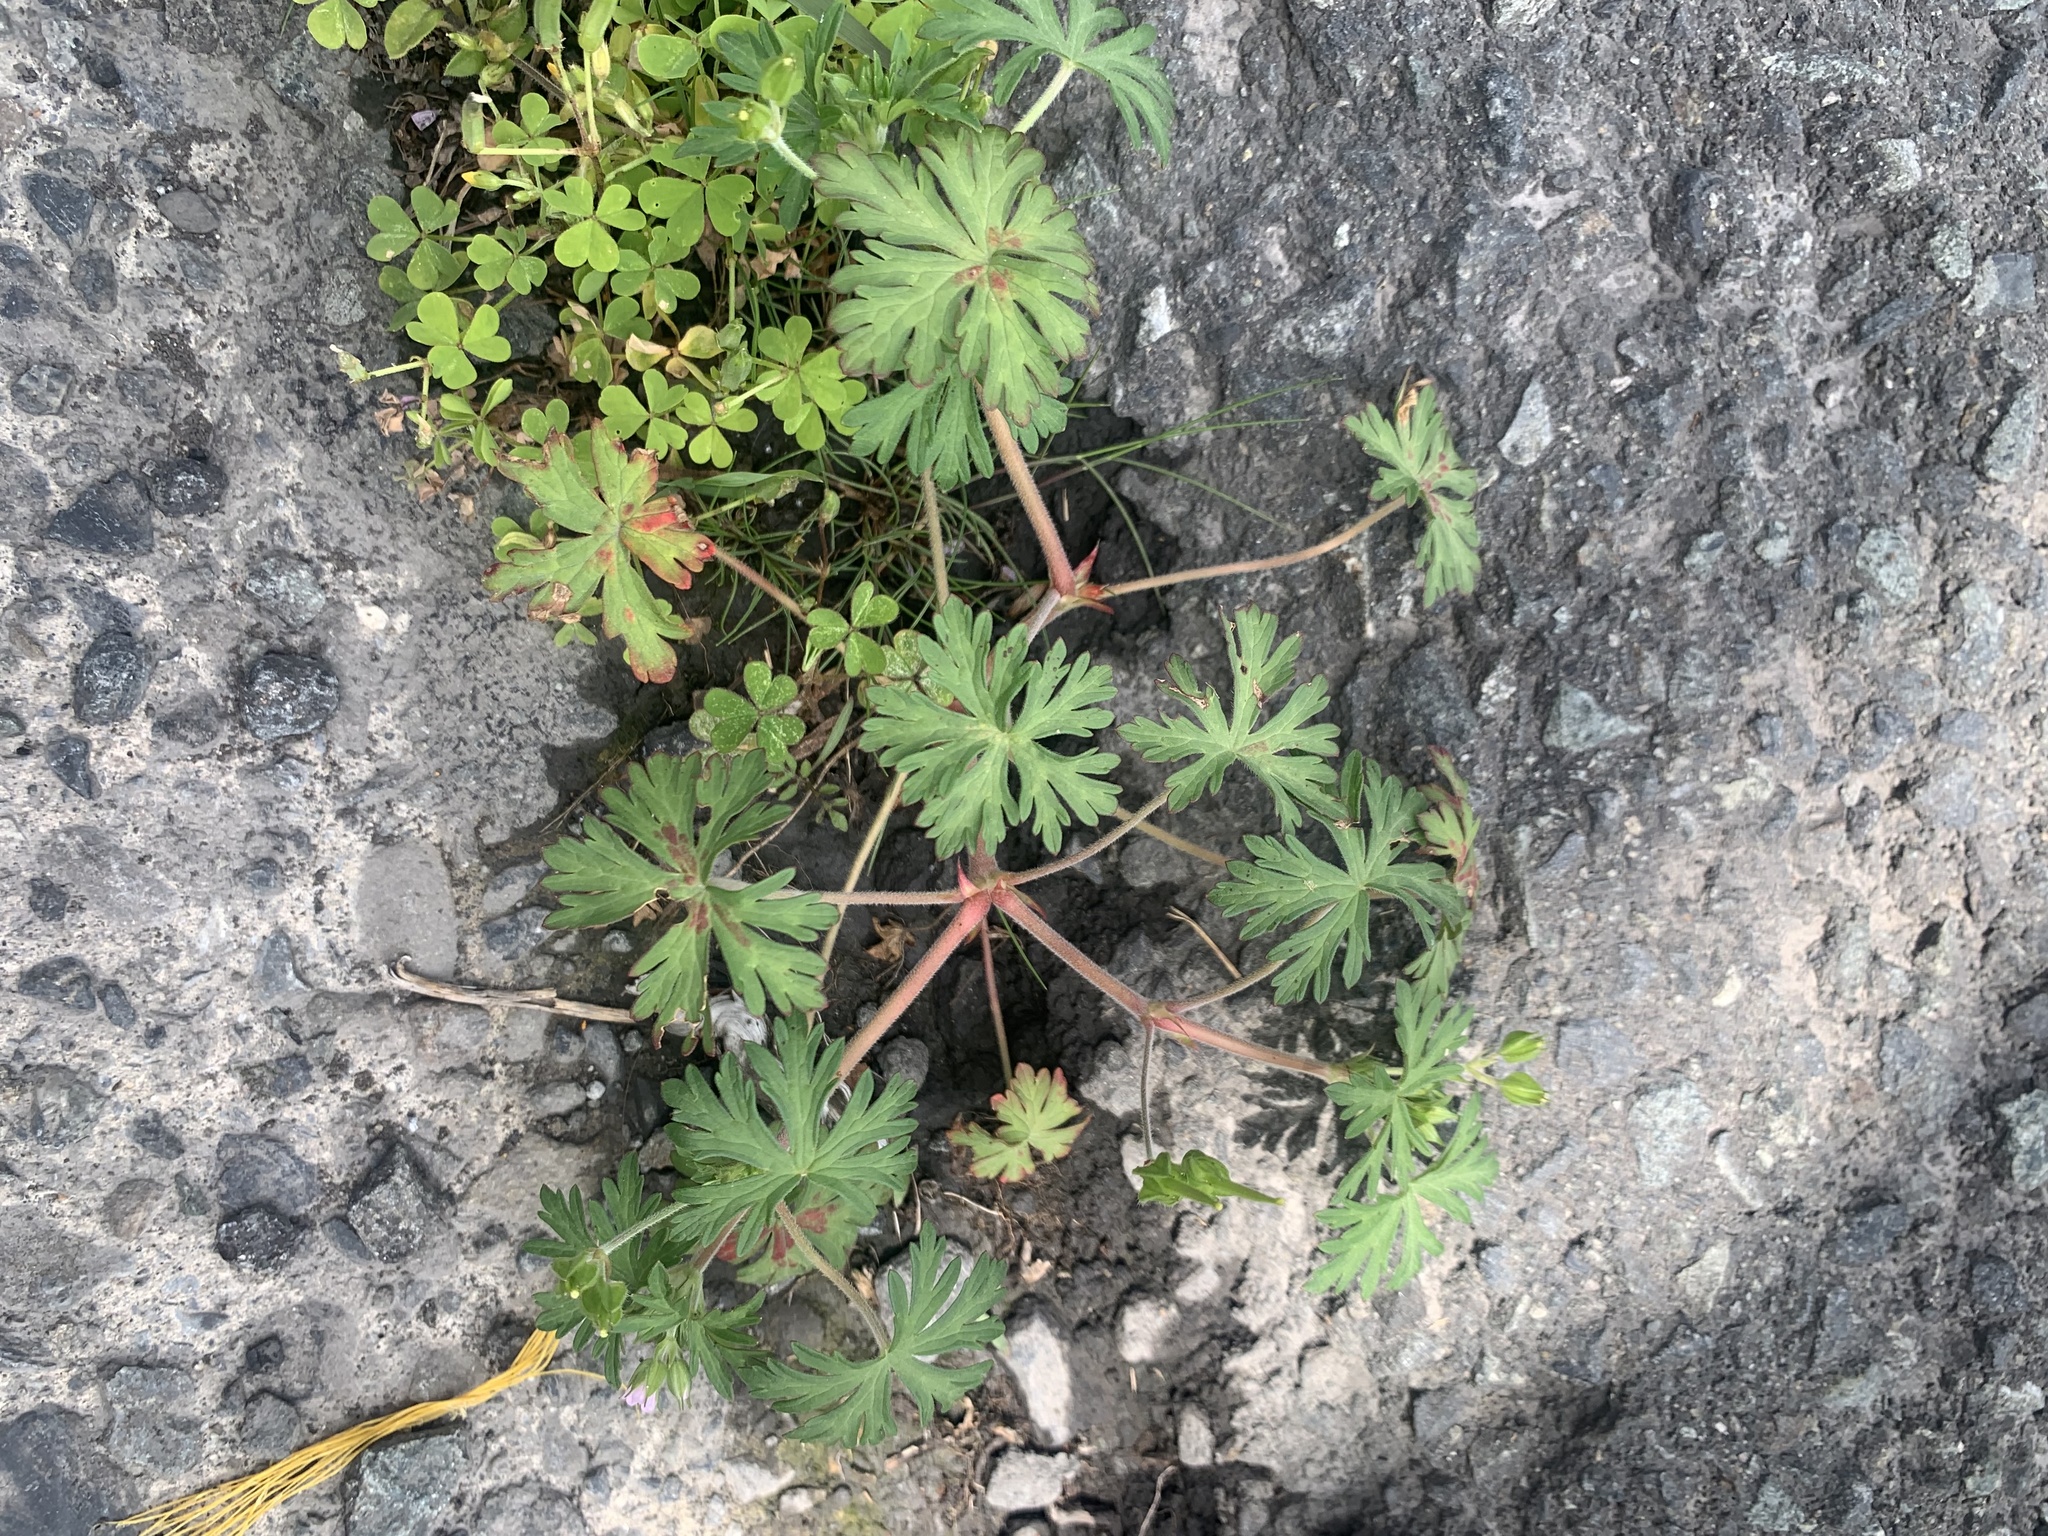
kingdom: Plantae
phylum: Tracheophyta
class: Magnoliopsida
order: Geraniales
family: Geraniaceae
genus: Geranium
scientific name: Geranium carolinianum
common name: Carolina crane's-bill
